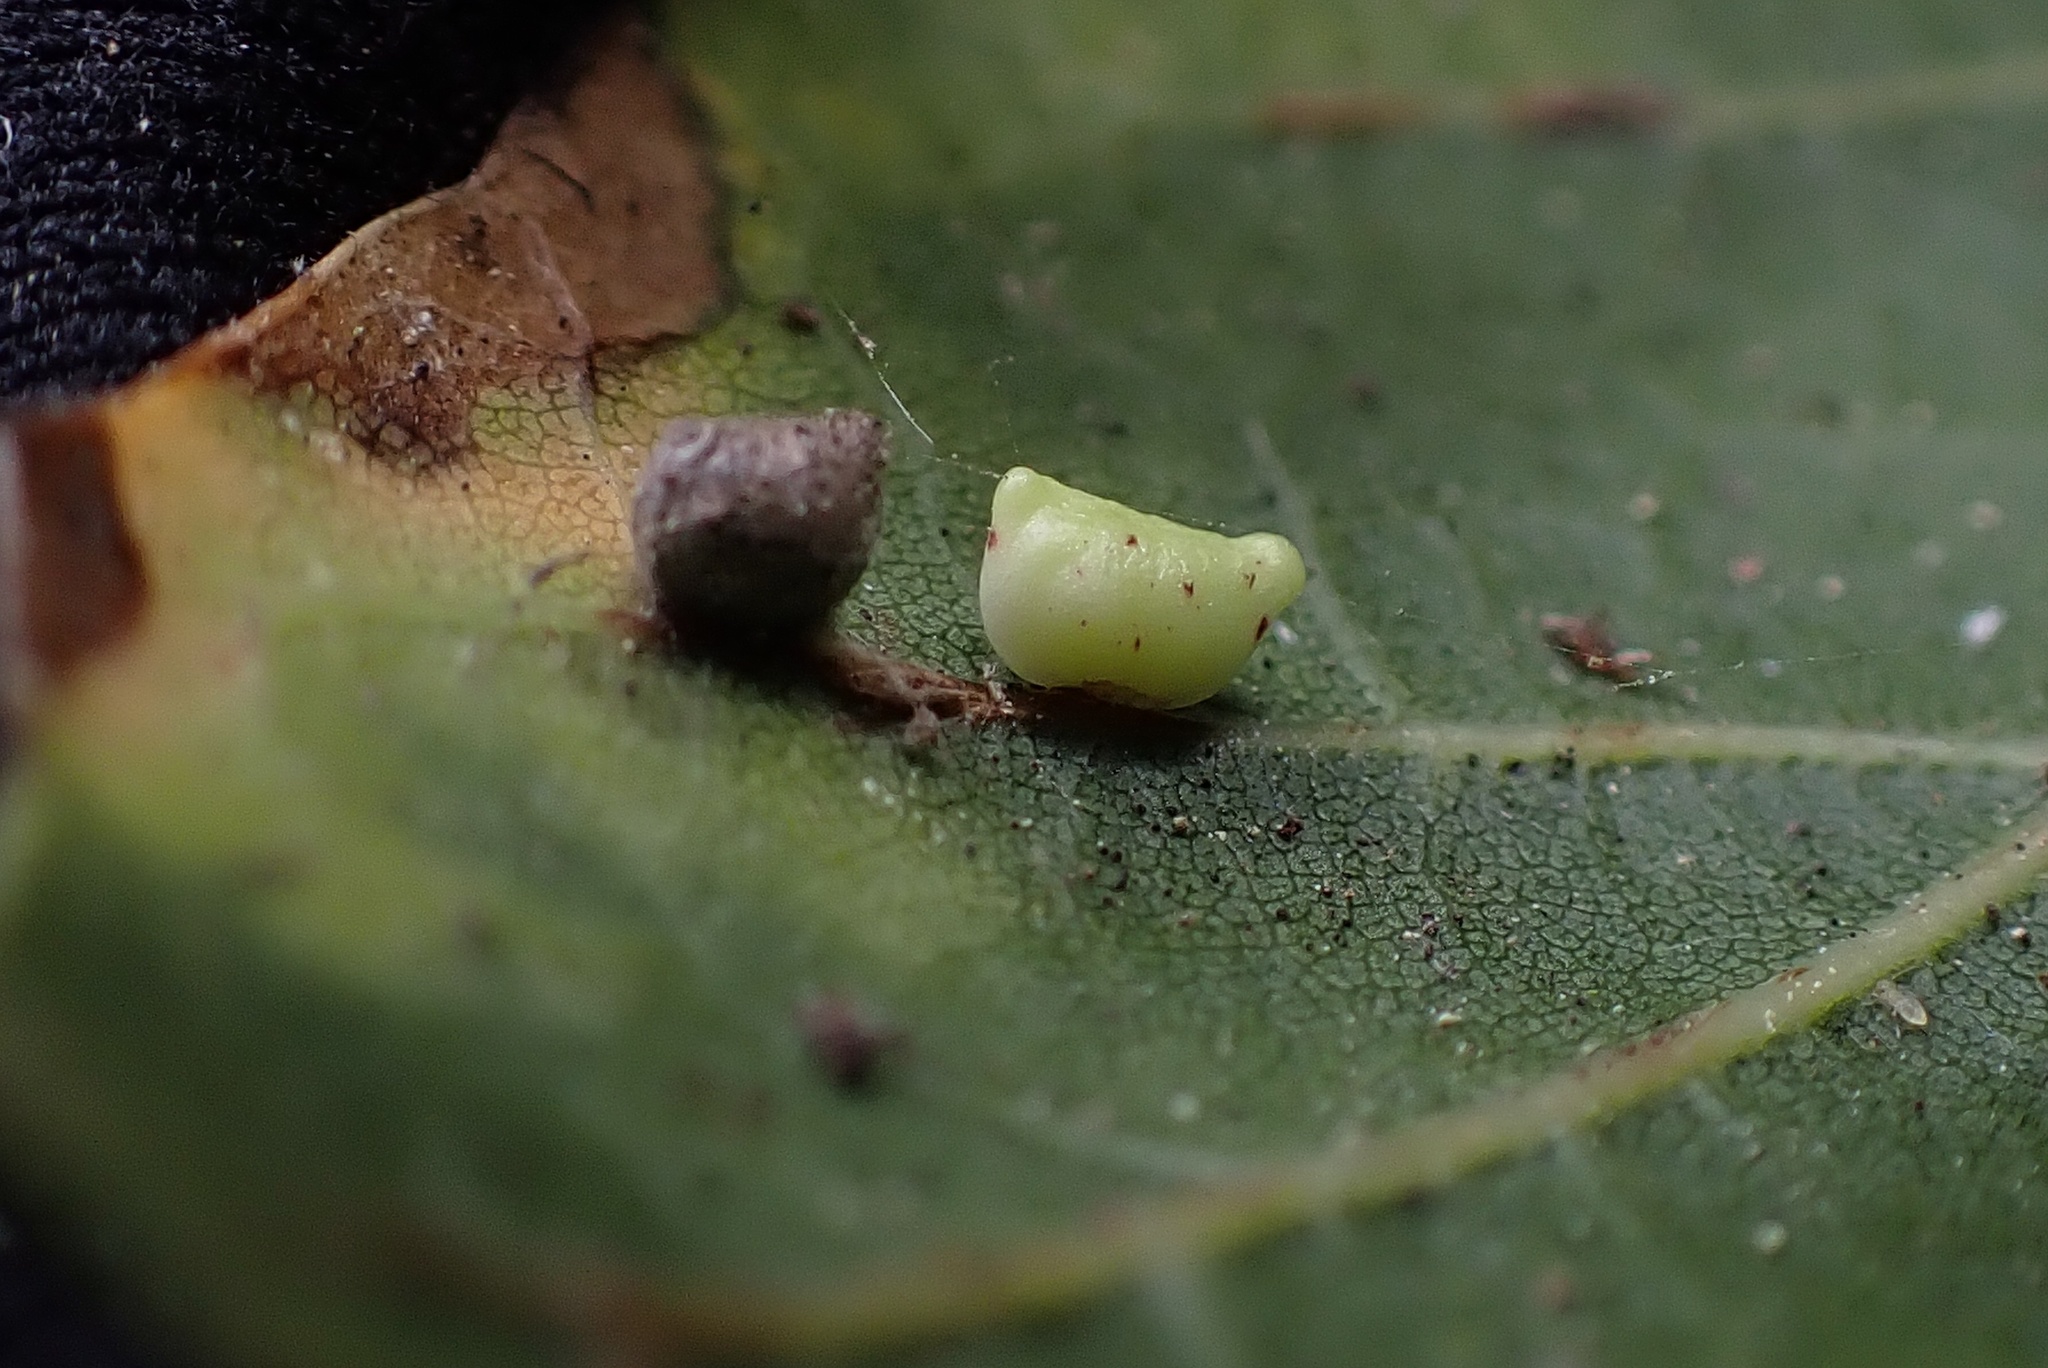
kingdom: Animalia
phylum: Arthropoda
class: Insecta
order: Hymenoptera
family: Cynipidae
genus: Dryocosmus
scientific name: Dryocosmus
